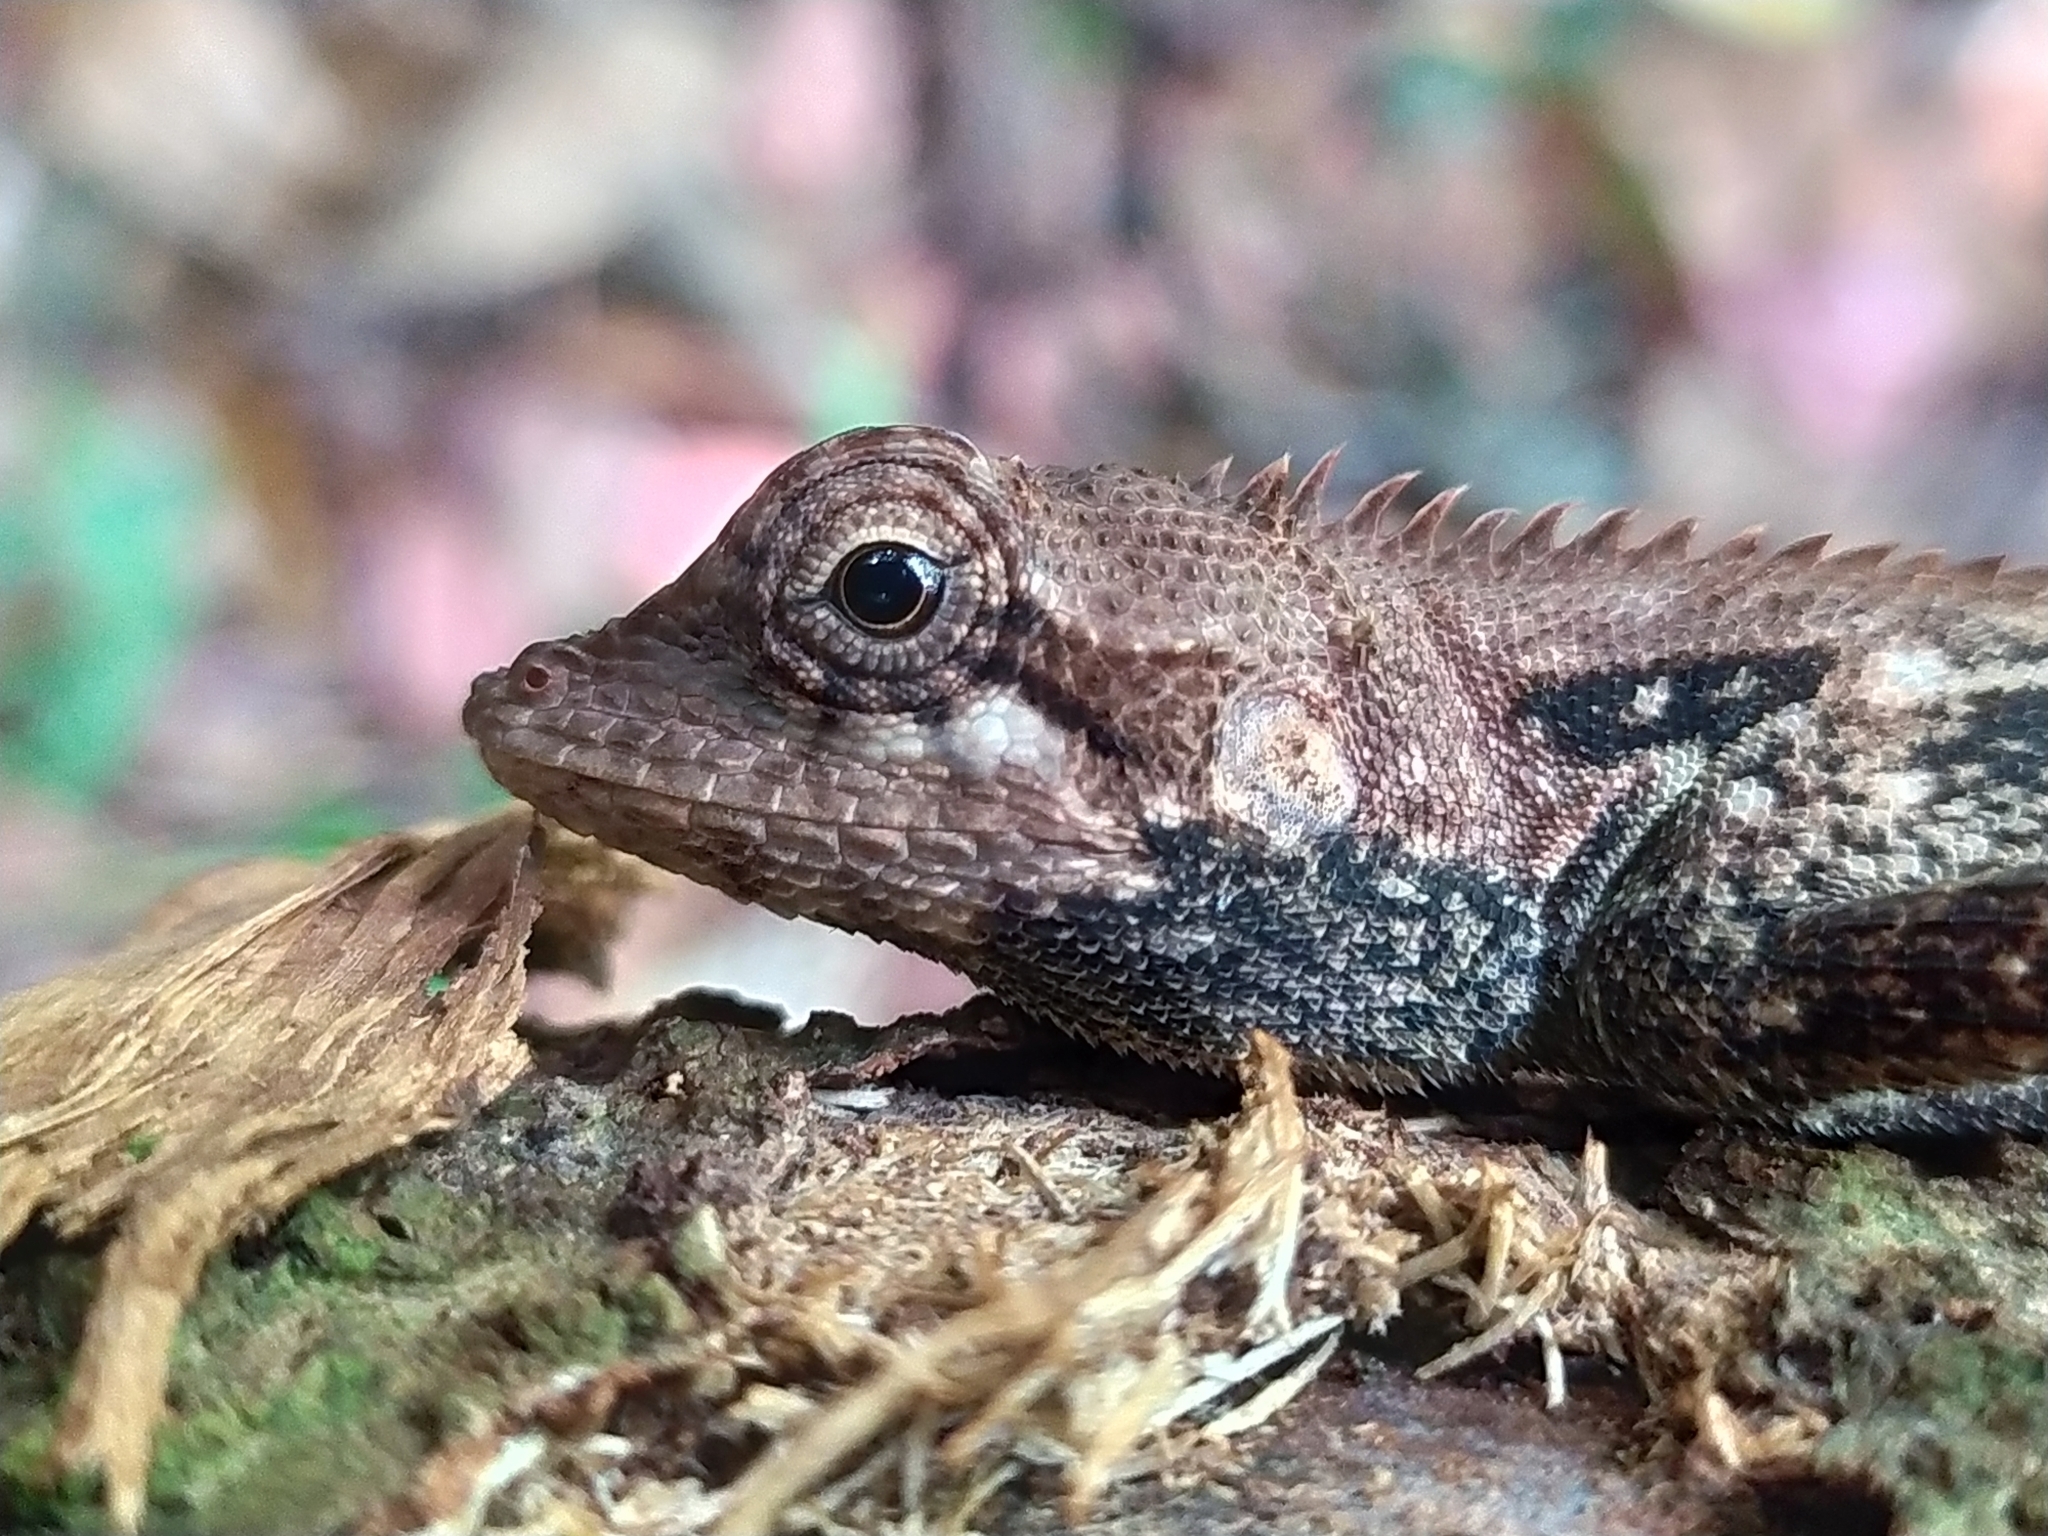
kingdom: Animalia
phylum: Chordata
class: Squamata
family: Agamidae
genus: Monilesaurus
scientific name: Monilesaurus rouxii
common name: Roux's forest lizard
